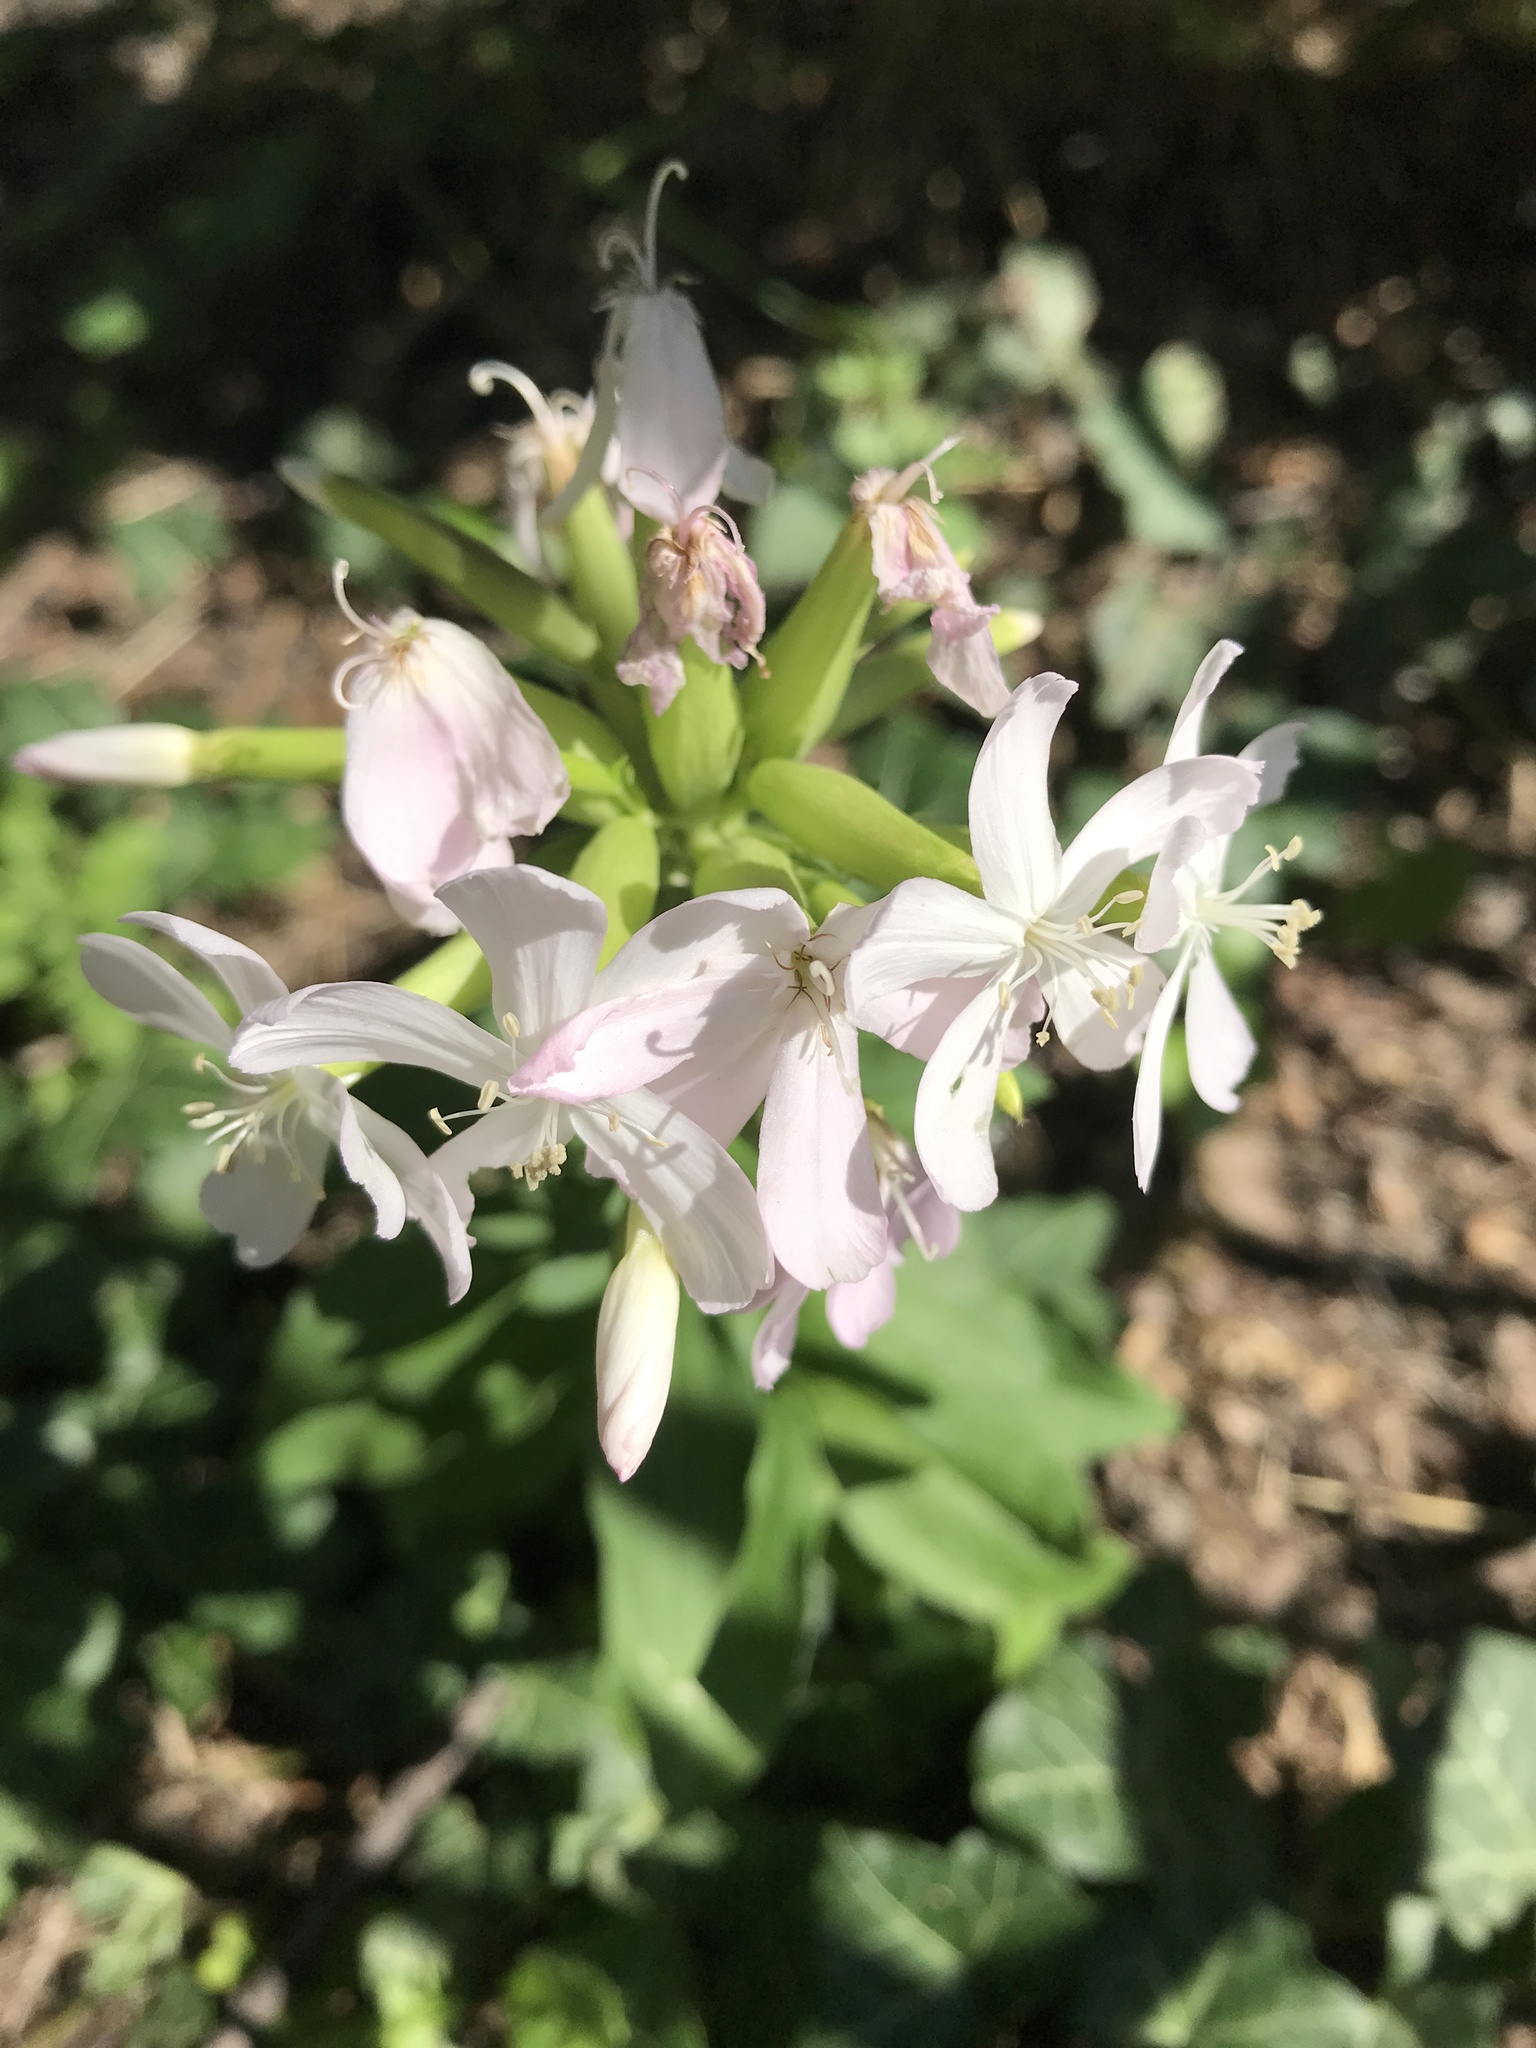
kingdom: Plantae
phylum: Tracheophyta
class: Magnoliopsida
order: Caryophyllales
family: Caryophyllaceae
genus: Saponaria
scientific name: Saponaria officinalis
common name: Soapwort
